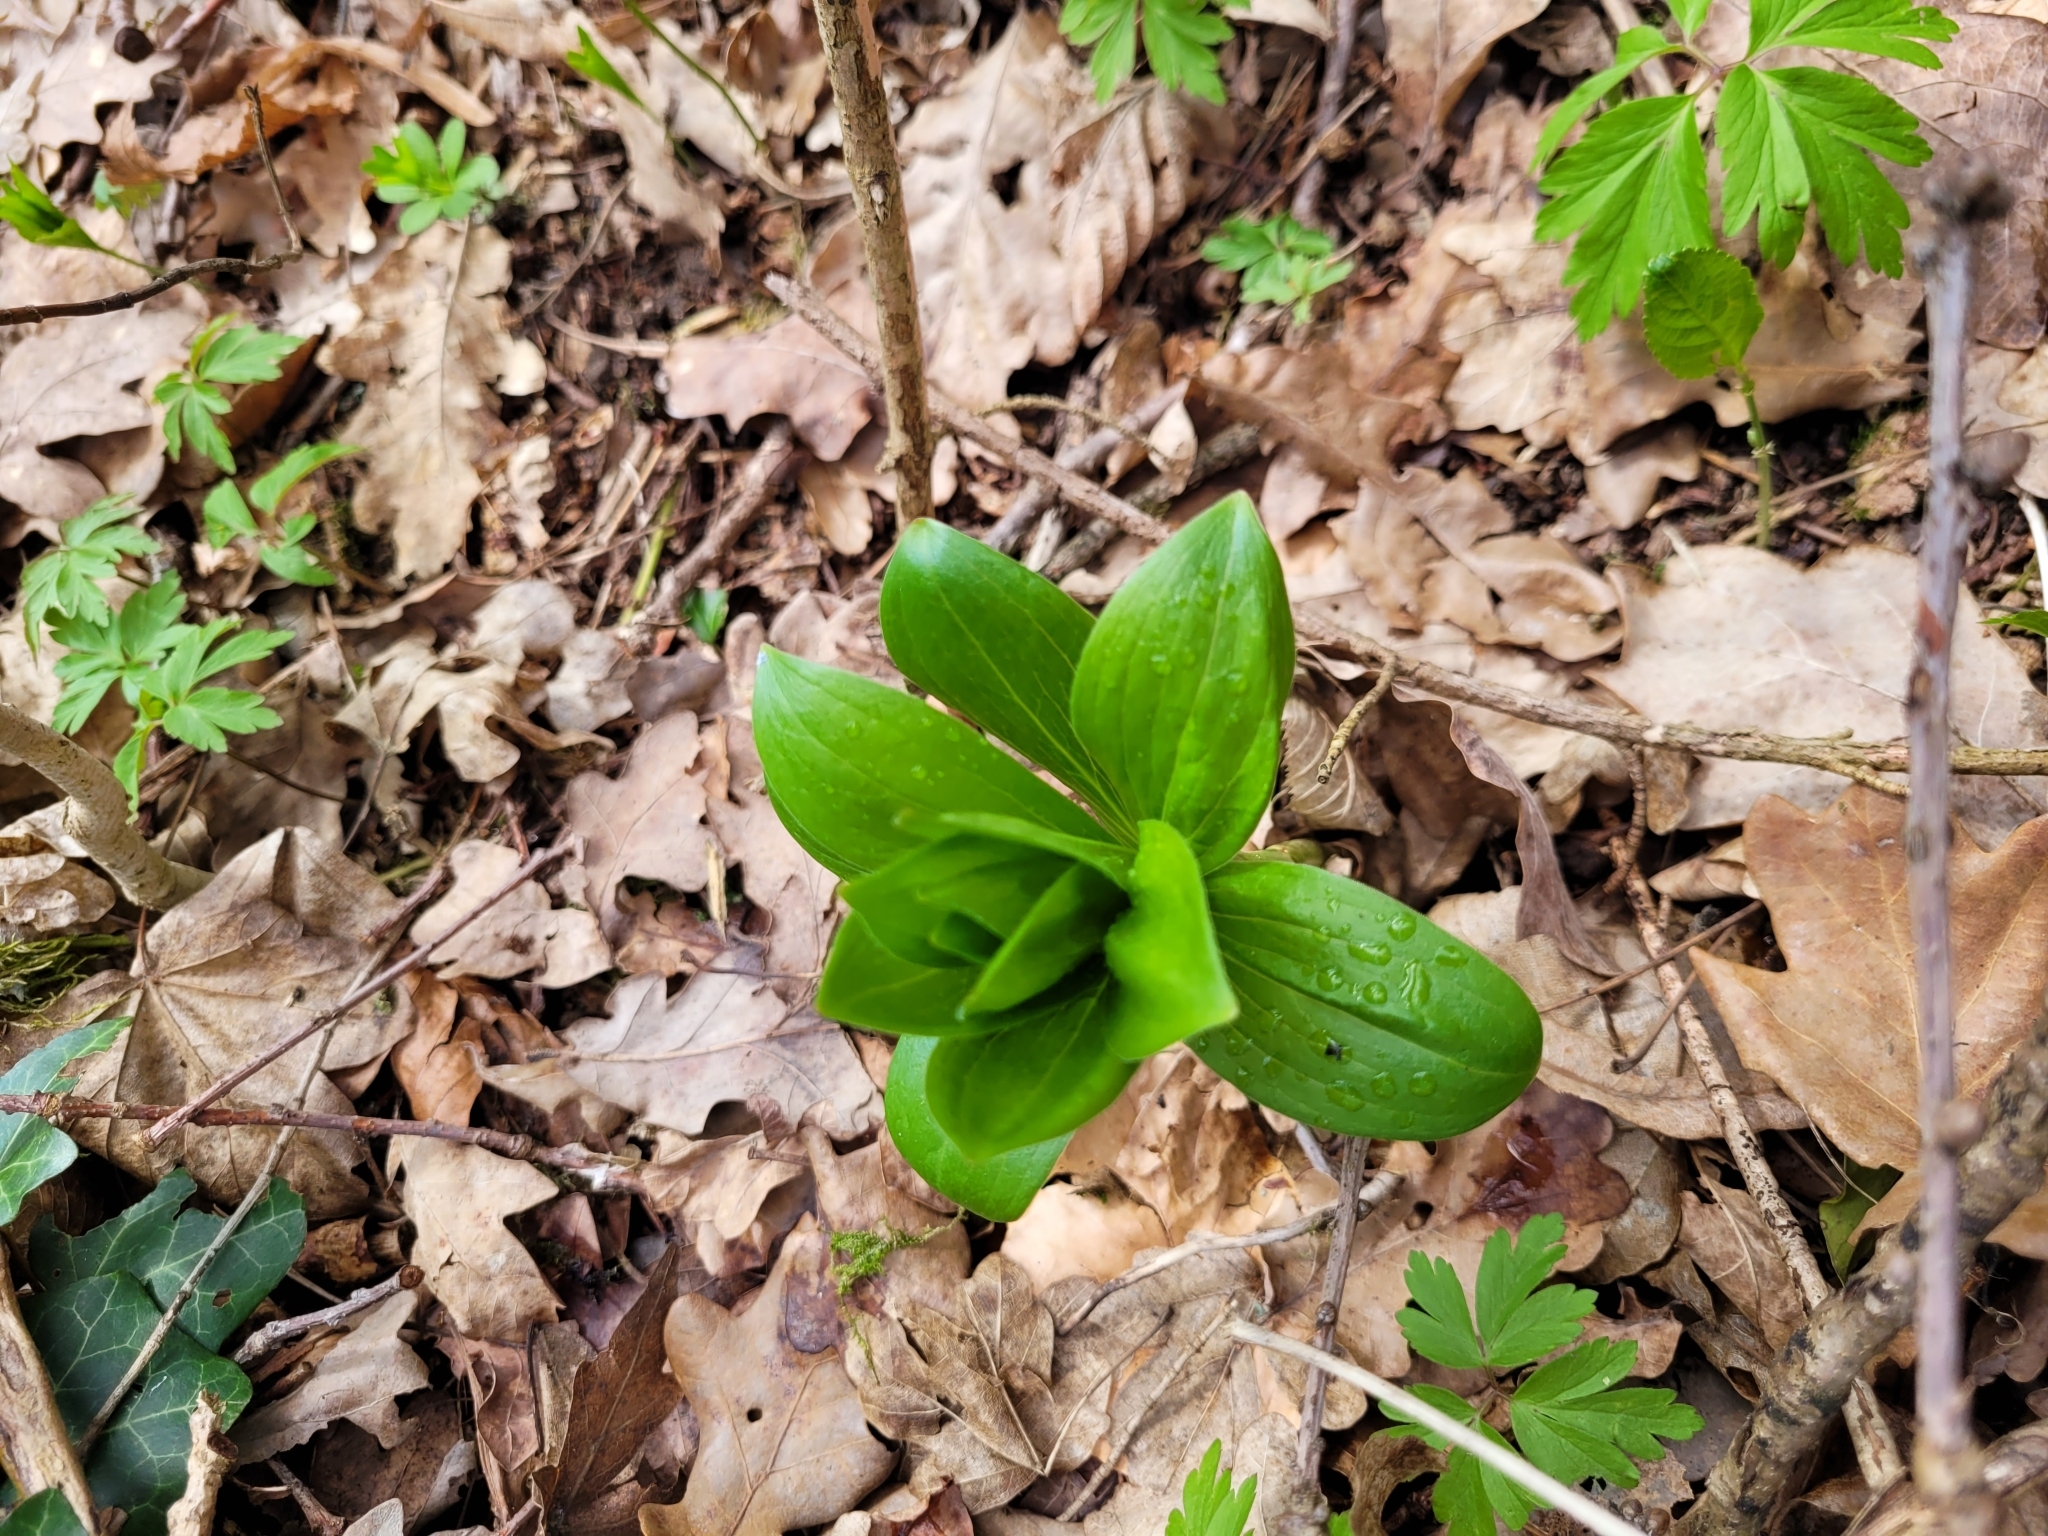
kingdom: Plantae
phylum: Tracheophyta
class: Liliopsida
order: Liliales
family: Liliaceae
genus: Lilium
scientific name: Lilium martagon
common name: Martagon lily
